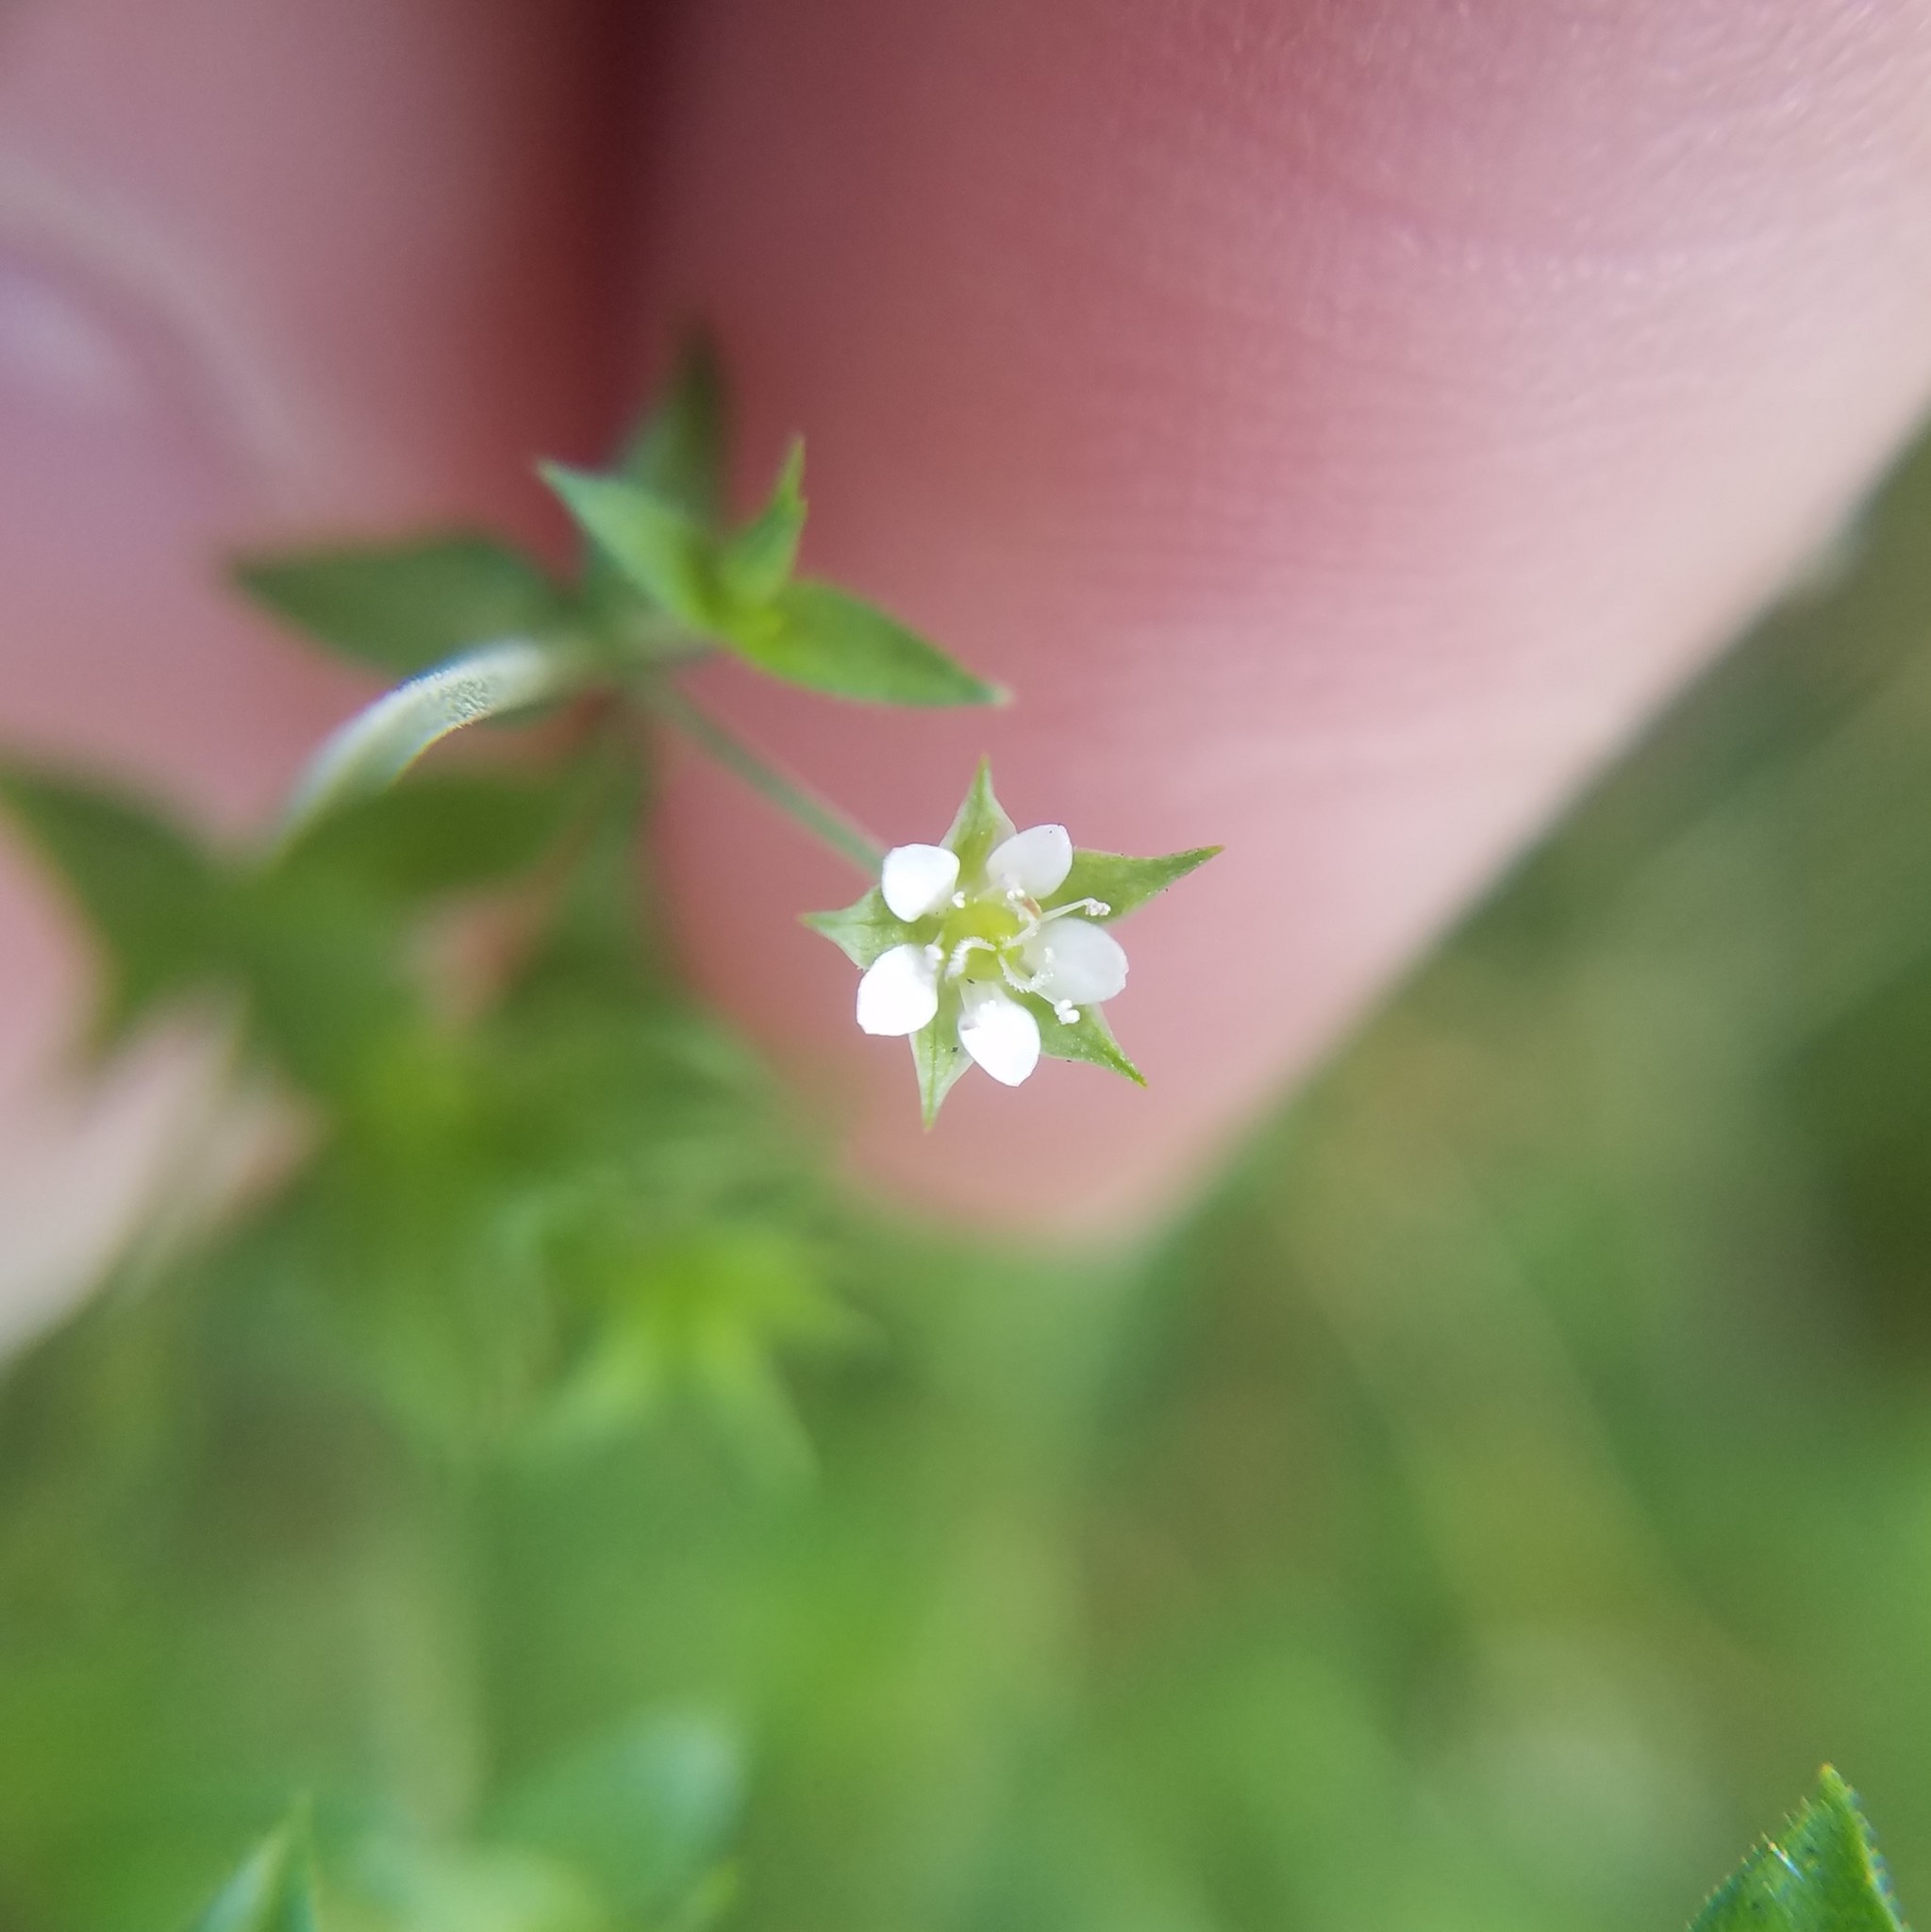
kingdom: Plantae
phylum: Tracheophyta
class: Magnoliopsida
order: Caryophyllales
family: Caryophyllaceae
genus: Arenaria
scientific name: Arenaria serpyllifolia
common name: Thyme-leaved sandwort
